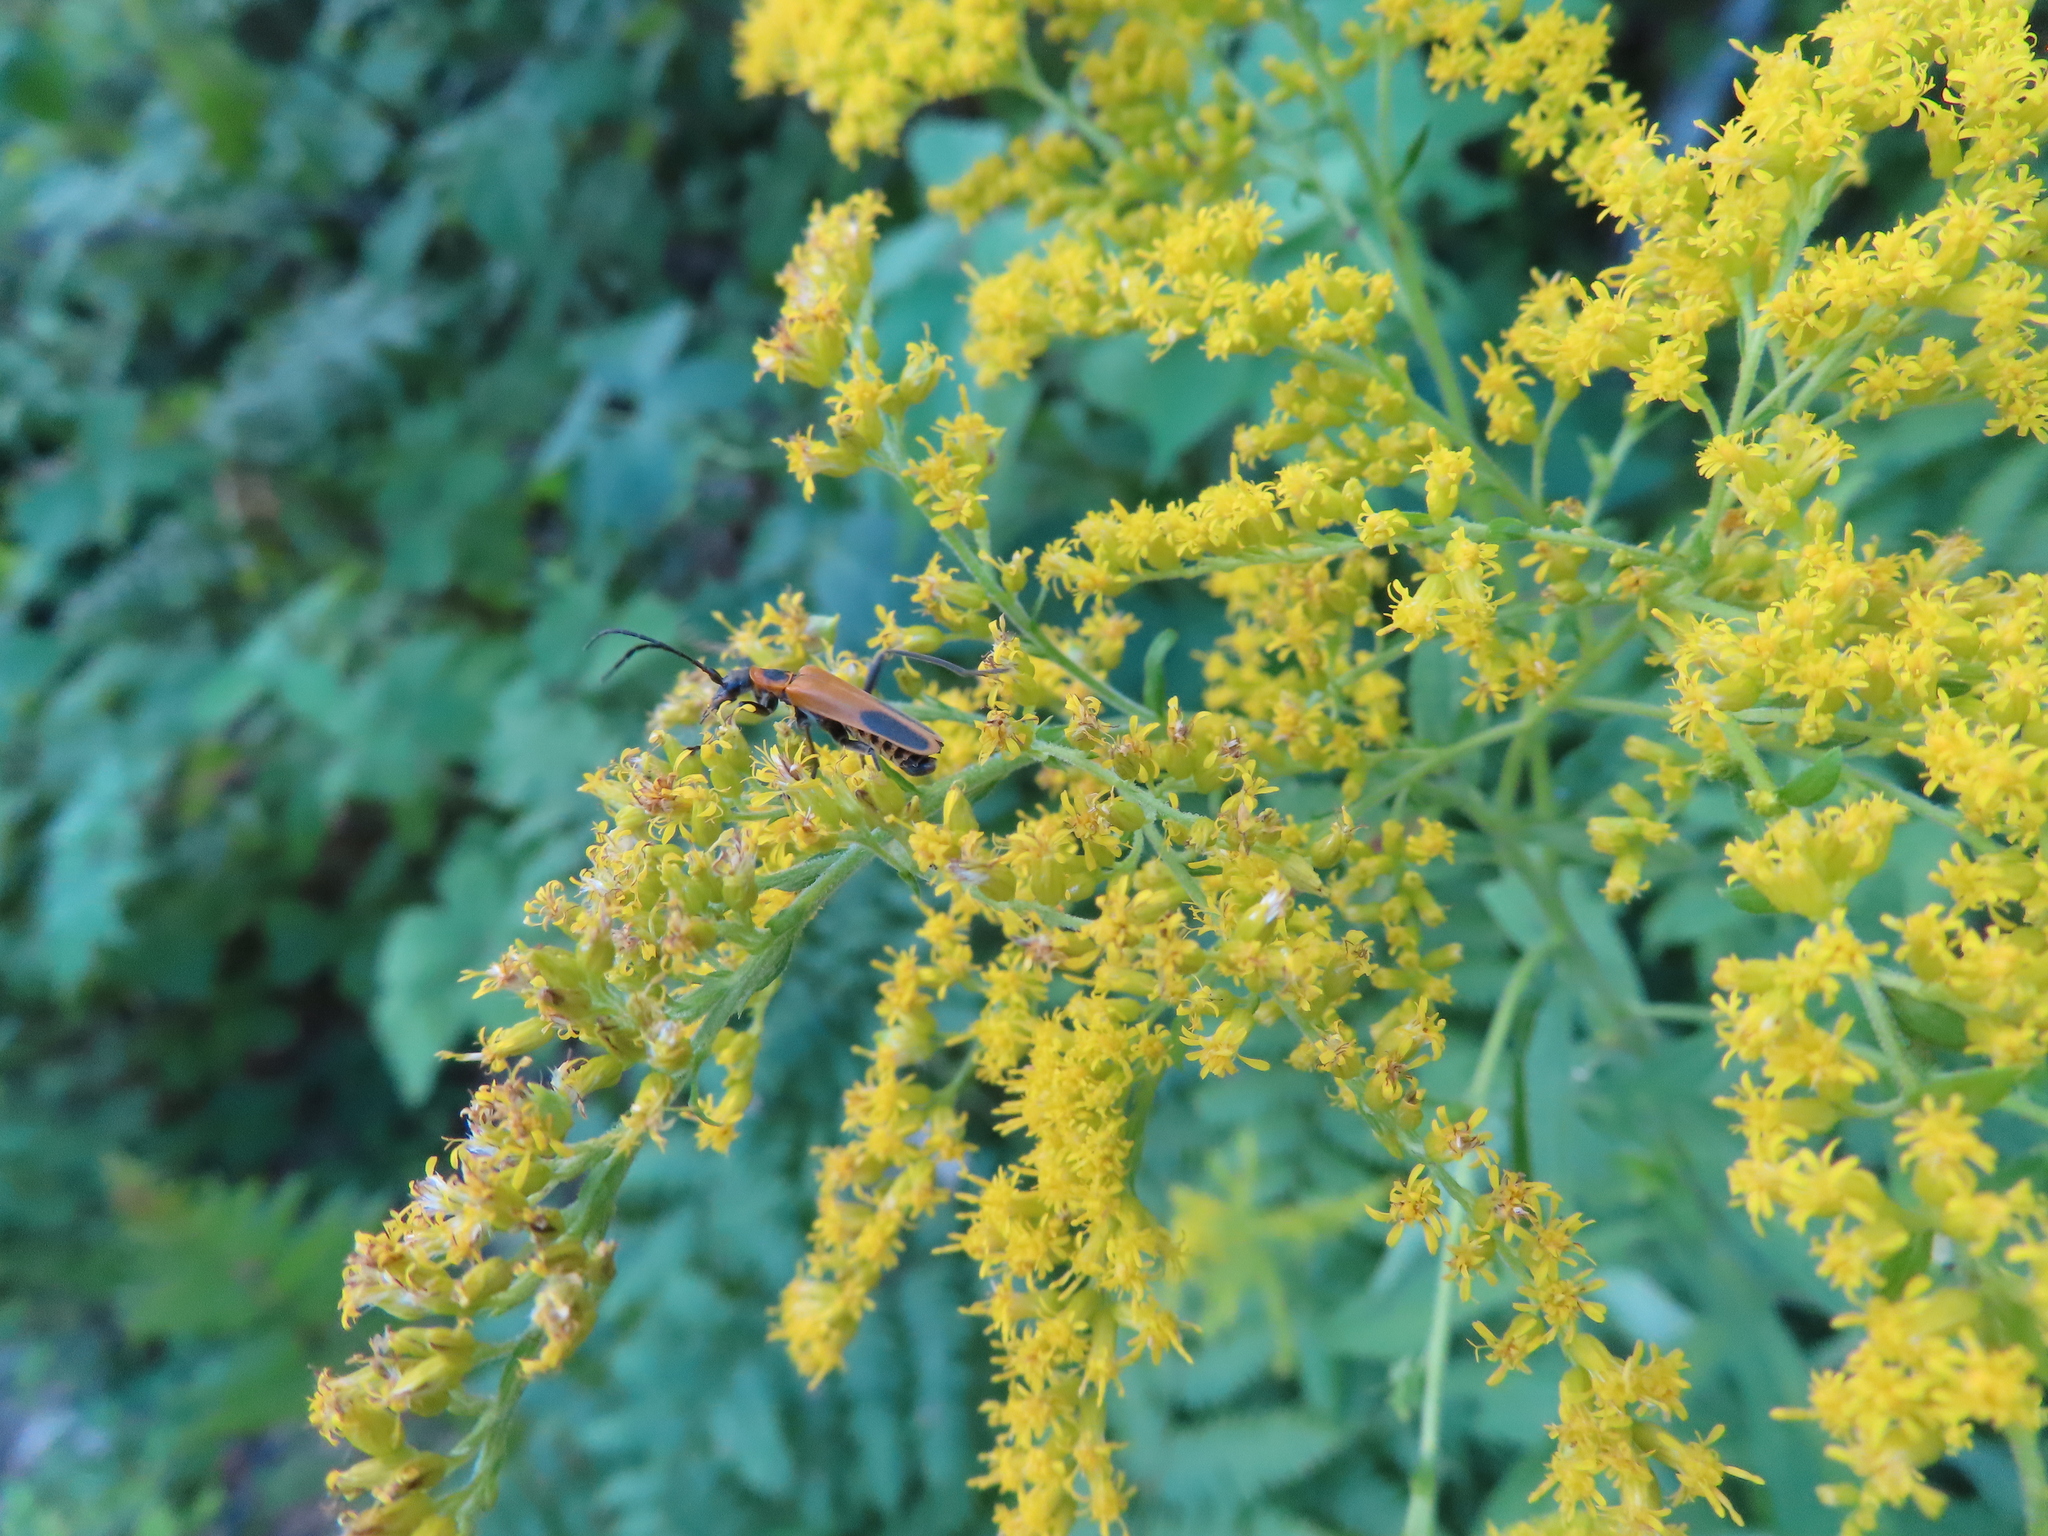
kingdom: Animalia
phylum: Arthropoda
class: Insecta
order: Coleoptera
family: Cantharidae
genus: Chauliognathus
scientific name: Chauliognathus pensylvanicus
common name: Goldenrod soldier beetle
